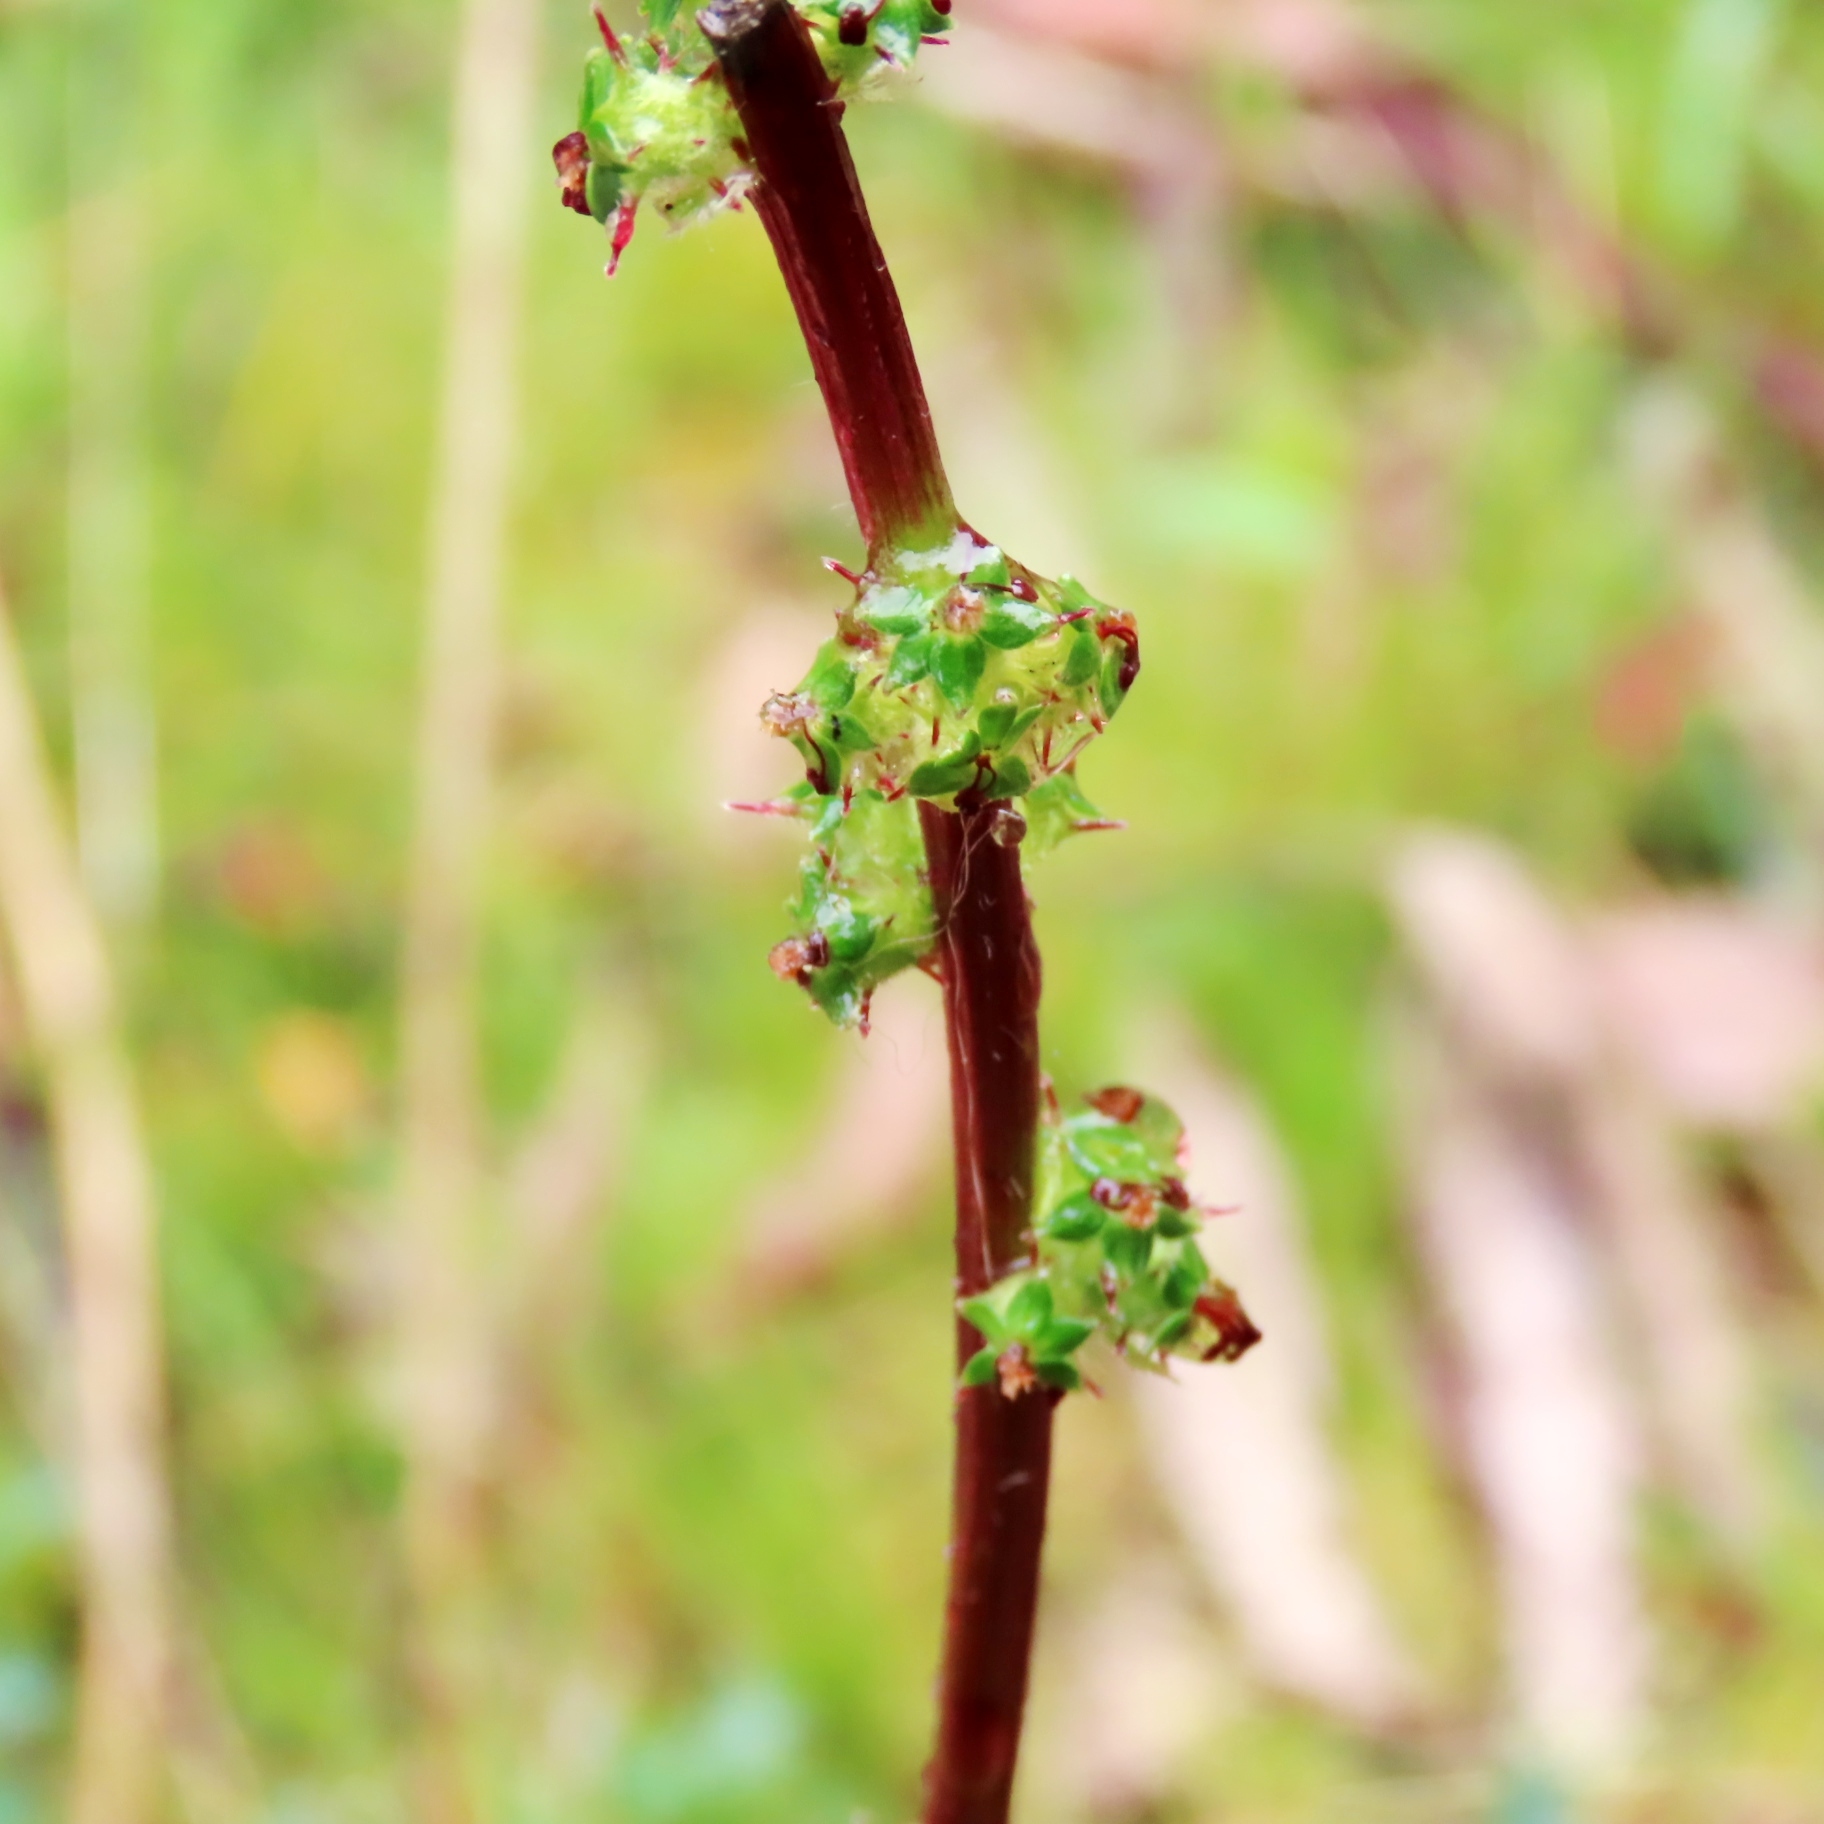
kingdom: Plantae
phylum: Tracheophyta
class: Magnoliopsida
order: Rosales
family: Rosaceae
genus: Acaena
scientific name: Acaena echinata
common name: Sheepbur
